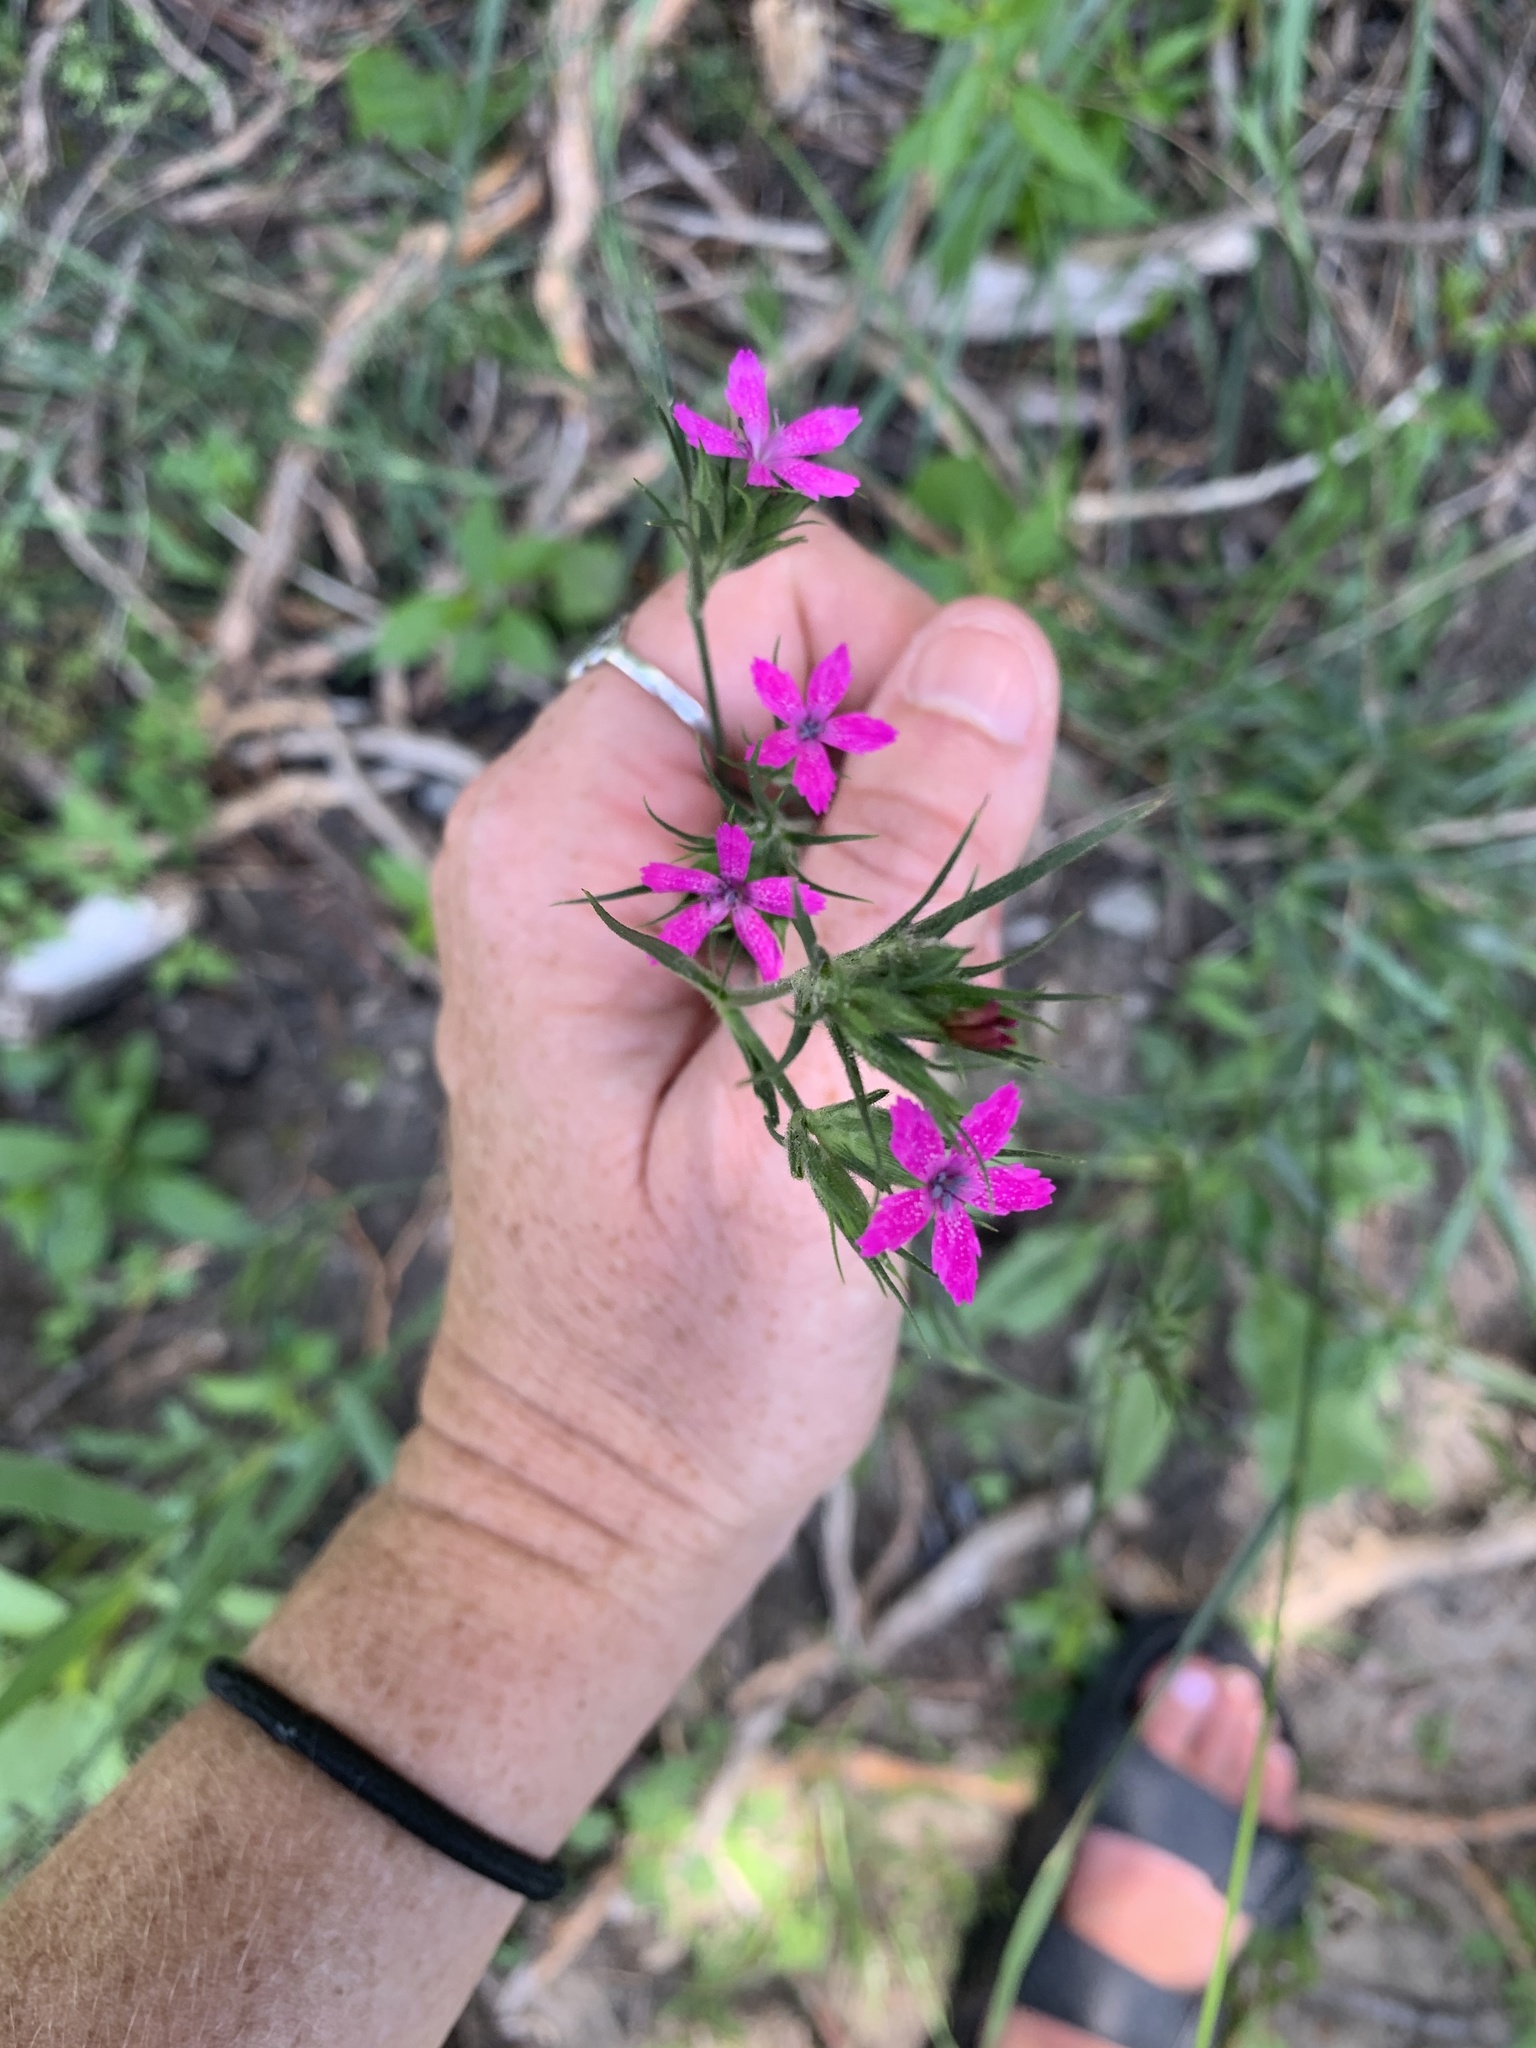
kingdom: Plantae
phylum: Tracheophyta
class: Magnoliopsida
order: Caryophyllales
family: Caryophyllaceae
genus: Dianthus
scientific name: Dianthus armeria
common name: Deptford pink
